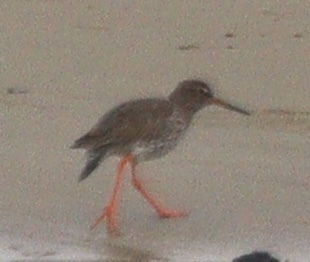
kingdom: Animalia
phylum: Chordata
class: Aves
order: Charadriiformes
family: Scolopacidae
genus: Tringa
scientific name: Tringa totanus
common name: Common redshank
